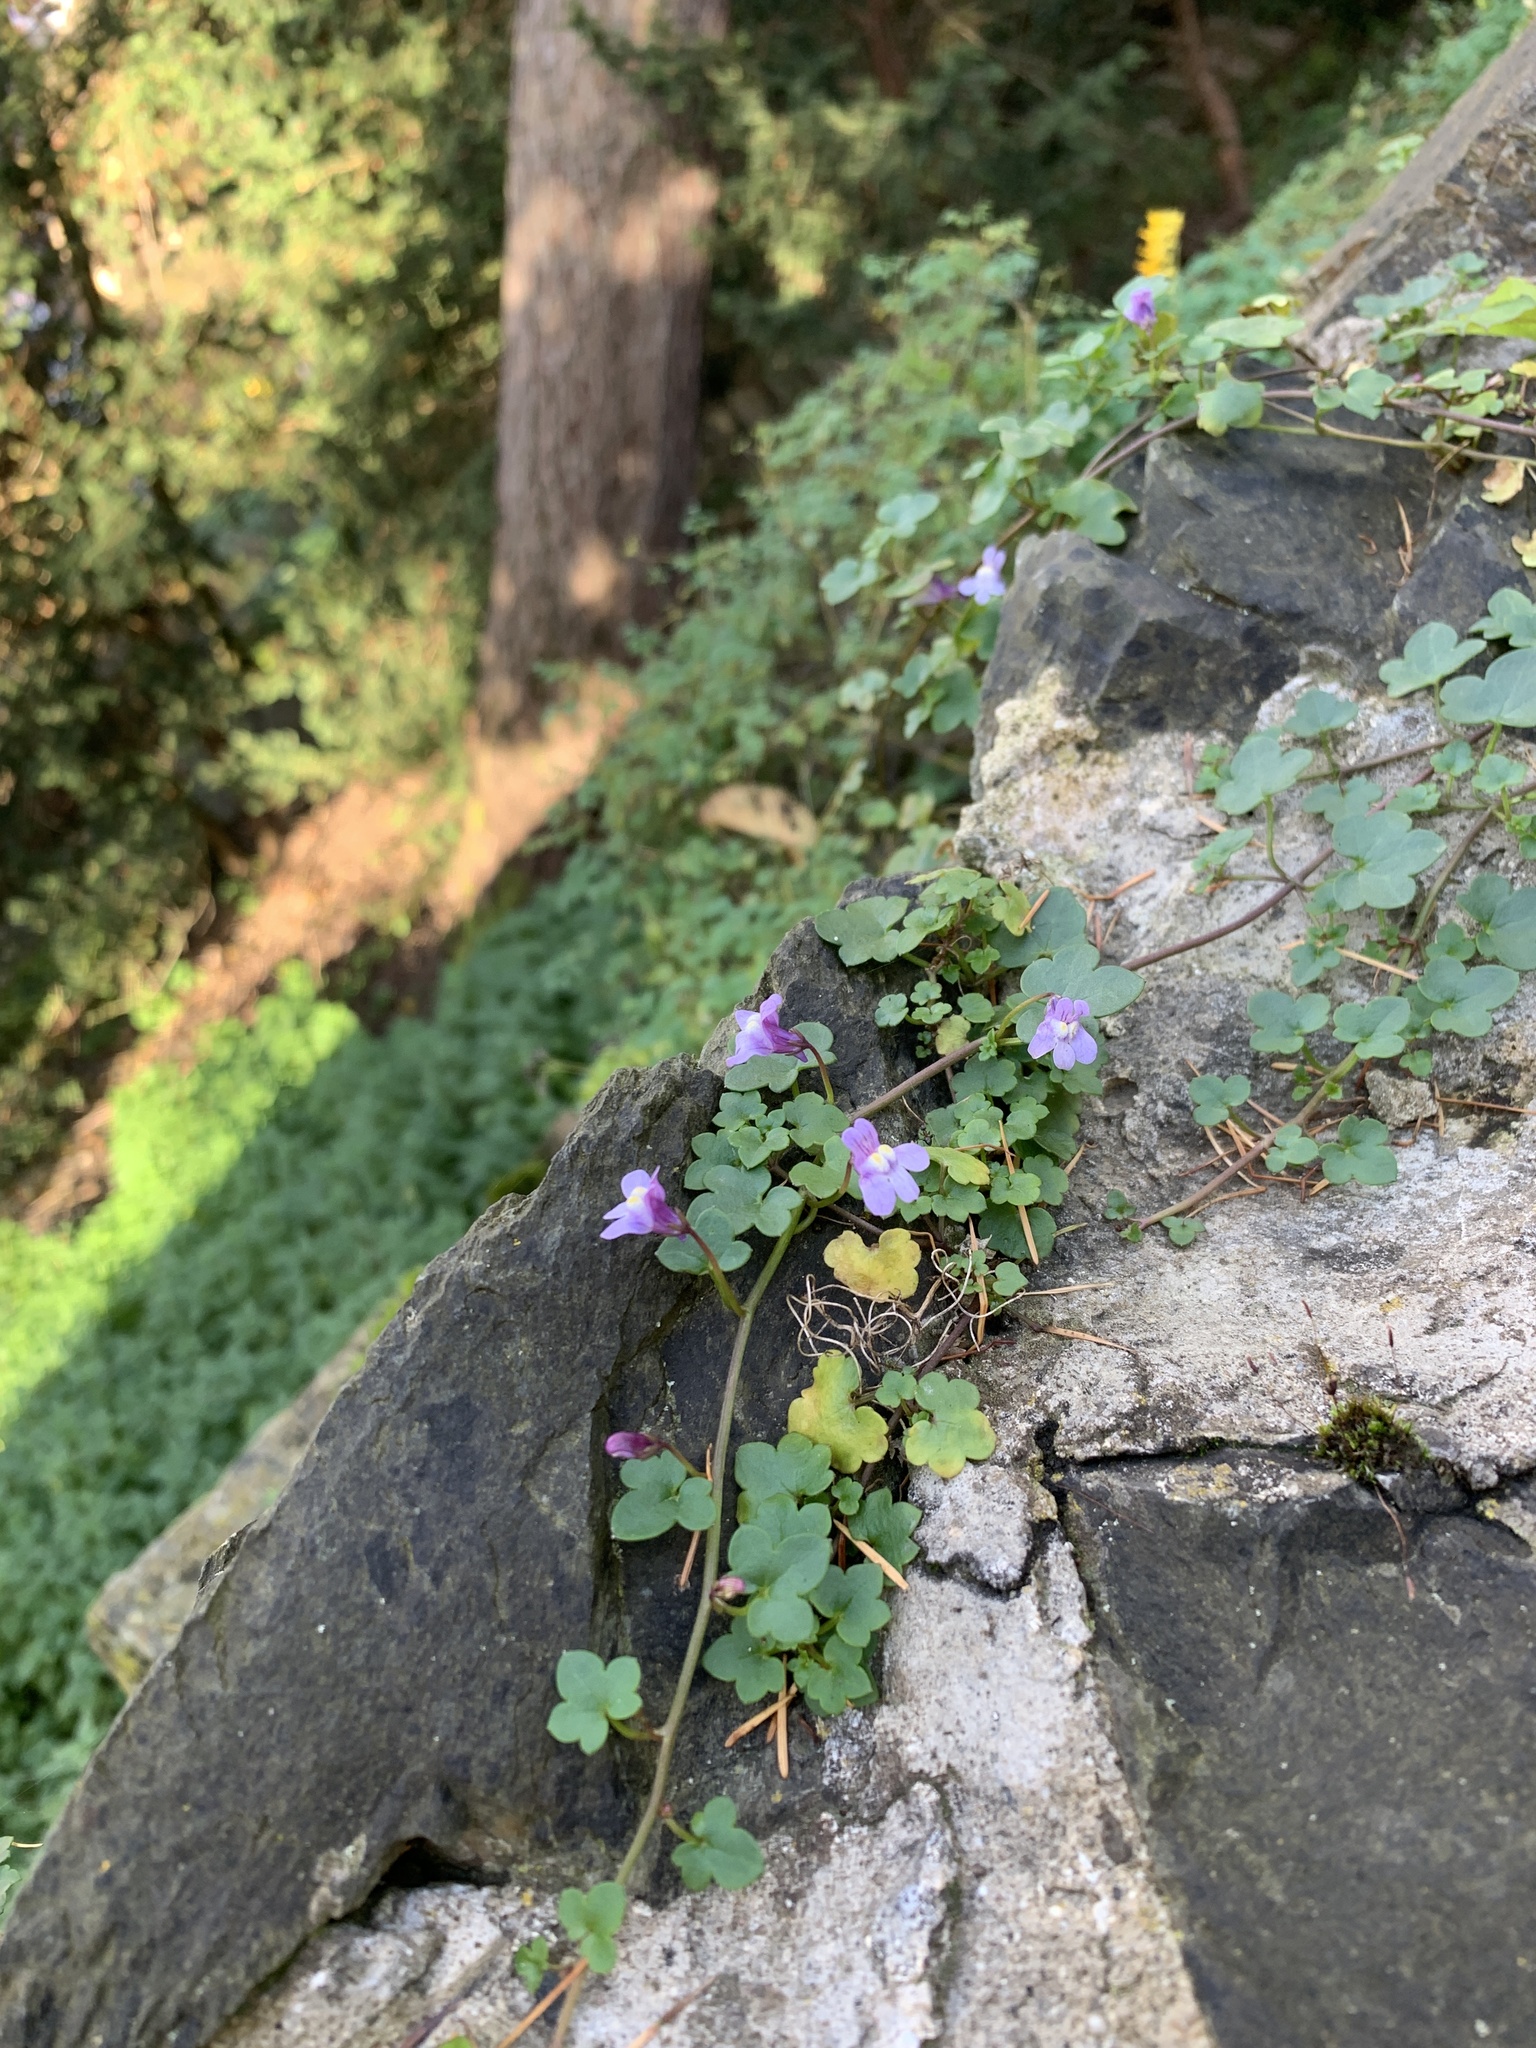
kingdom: Plantae
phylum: Tracheophyta
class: Magnoliopsida
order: Lamiales
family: Plantaginaceae
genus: Cymbalaria
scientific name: Cymbalaria muralis
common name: Ivy-leaved toadflax
